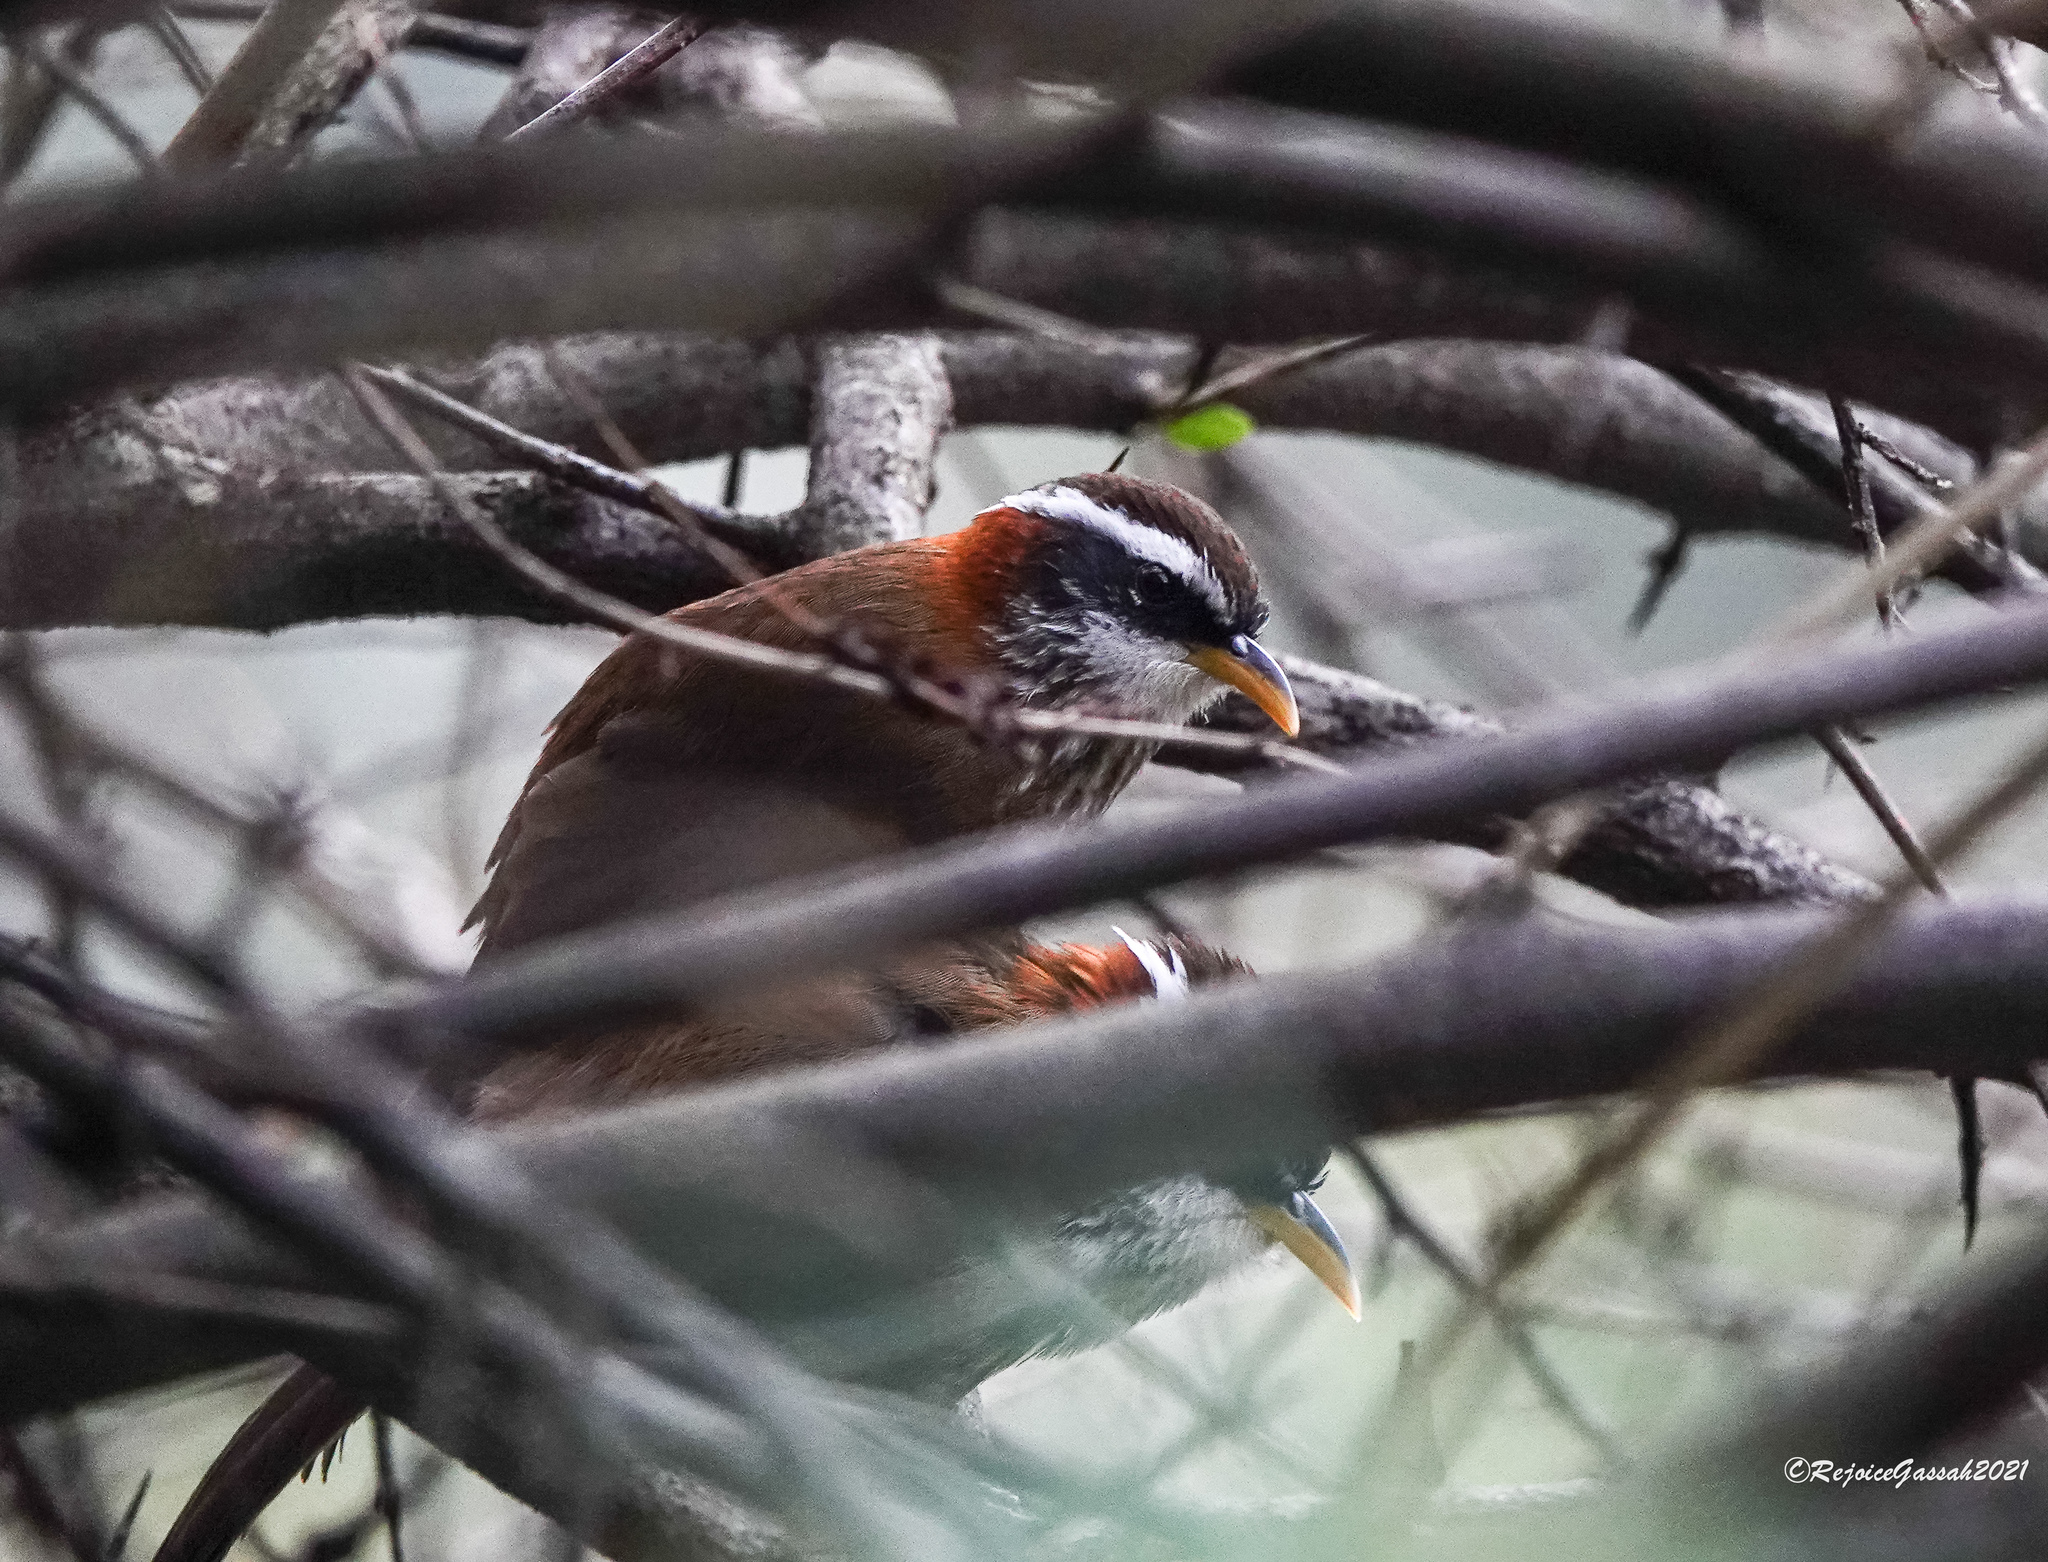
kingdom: Animalia
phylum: Chordata
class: Aves
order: Passeriformes
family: Timaliidae
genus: Pomatorhinus
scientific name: Pomatorhinus ruficollis
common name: Streak-breasted scimitar babbler
